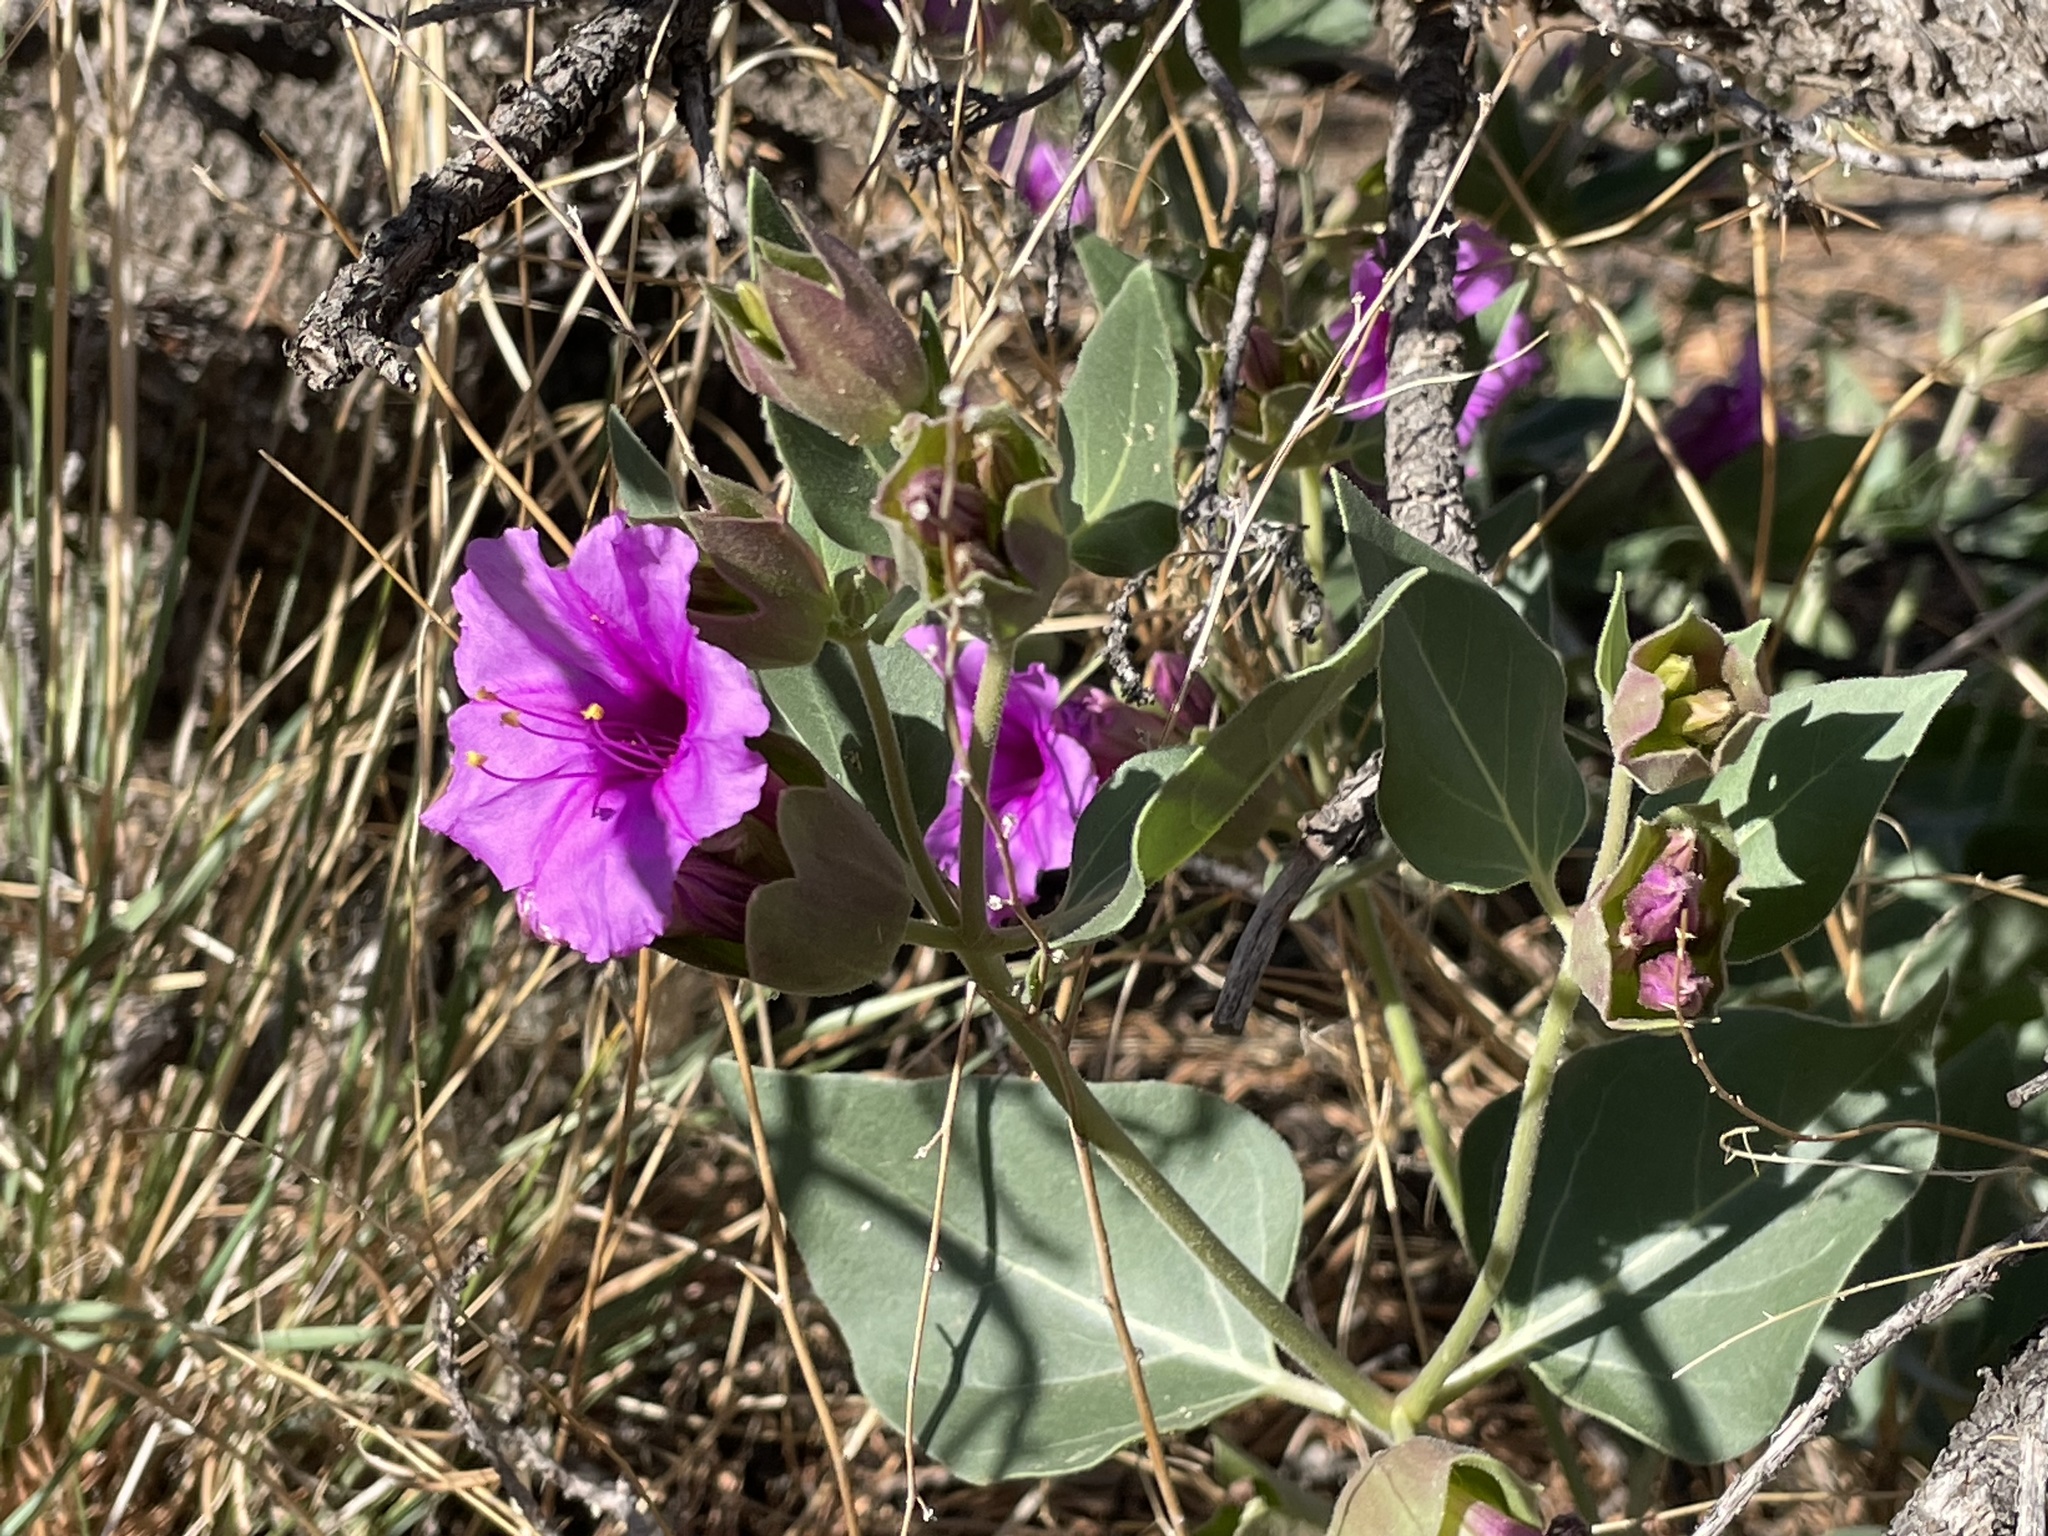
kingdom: Plantae
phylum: Tracheophyta
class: Magnoliopsida
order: Caryophyllales
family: Nyctaginaceae
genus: Mirabilis
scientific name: Mirabilis multiflora
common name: Froebel's four-o'clock
